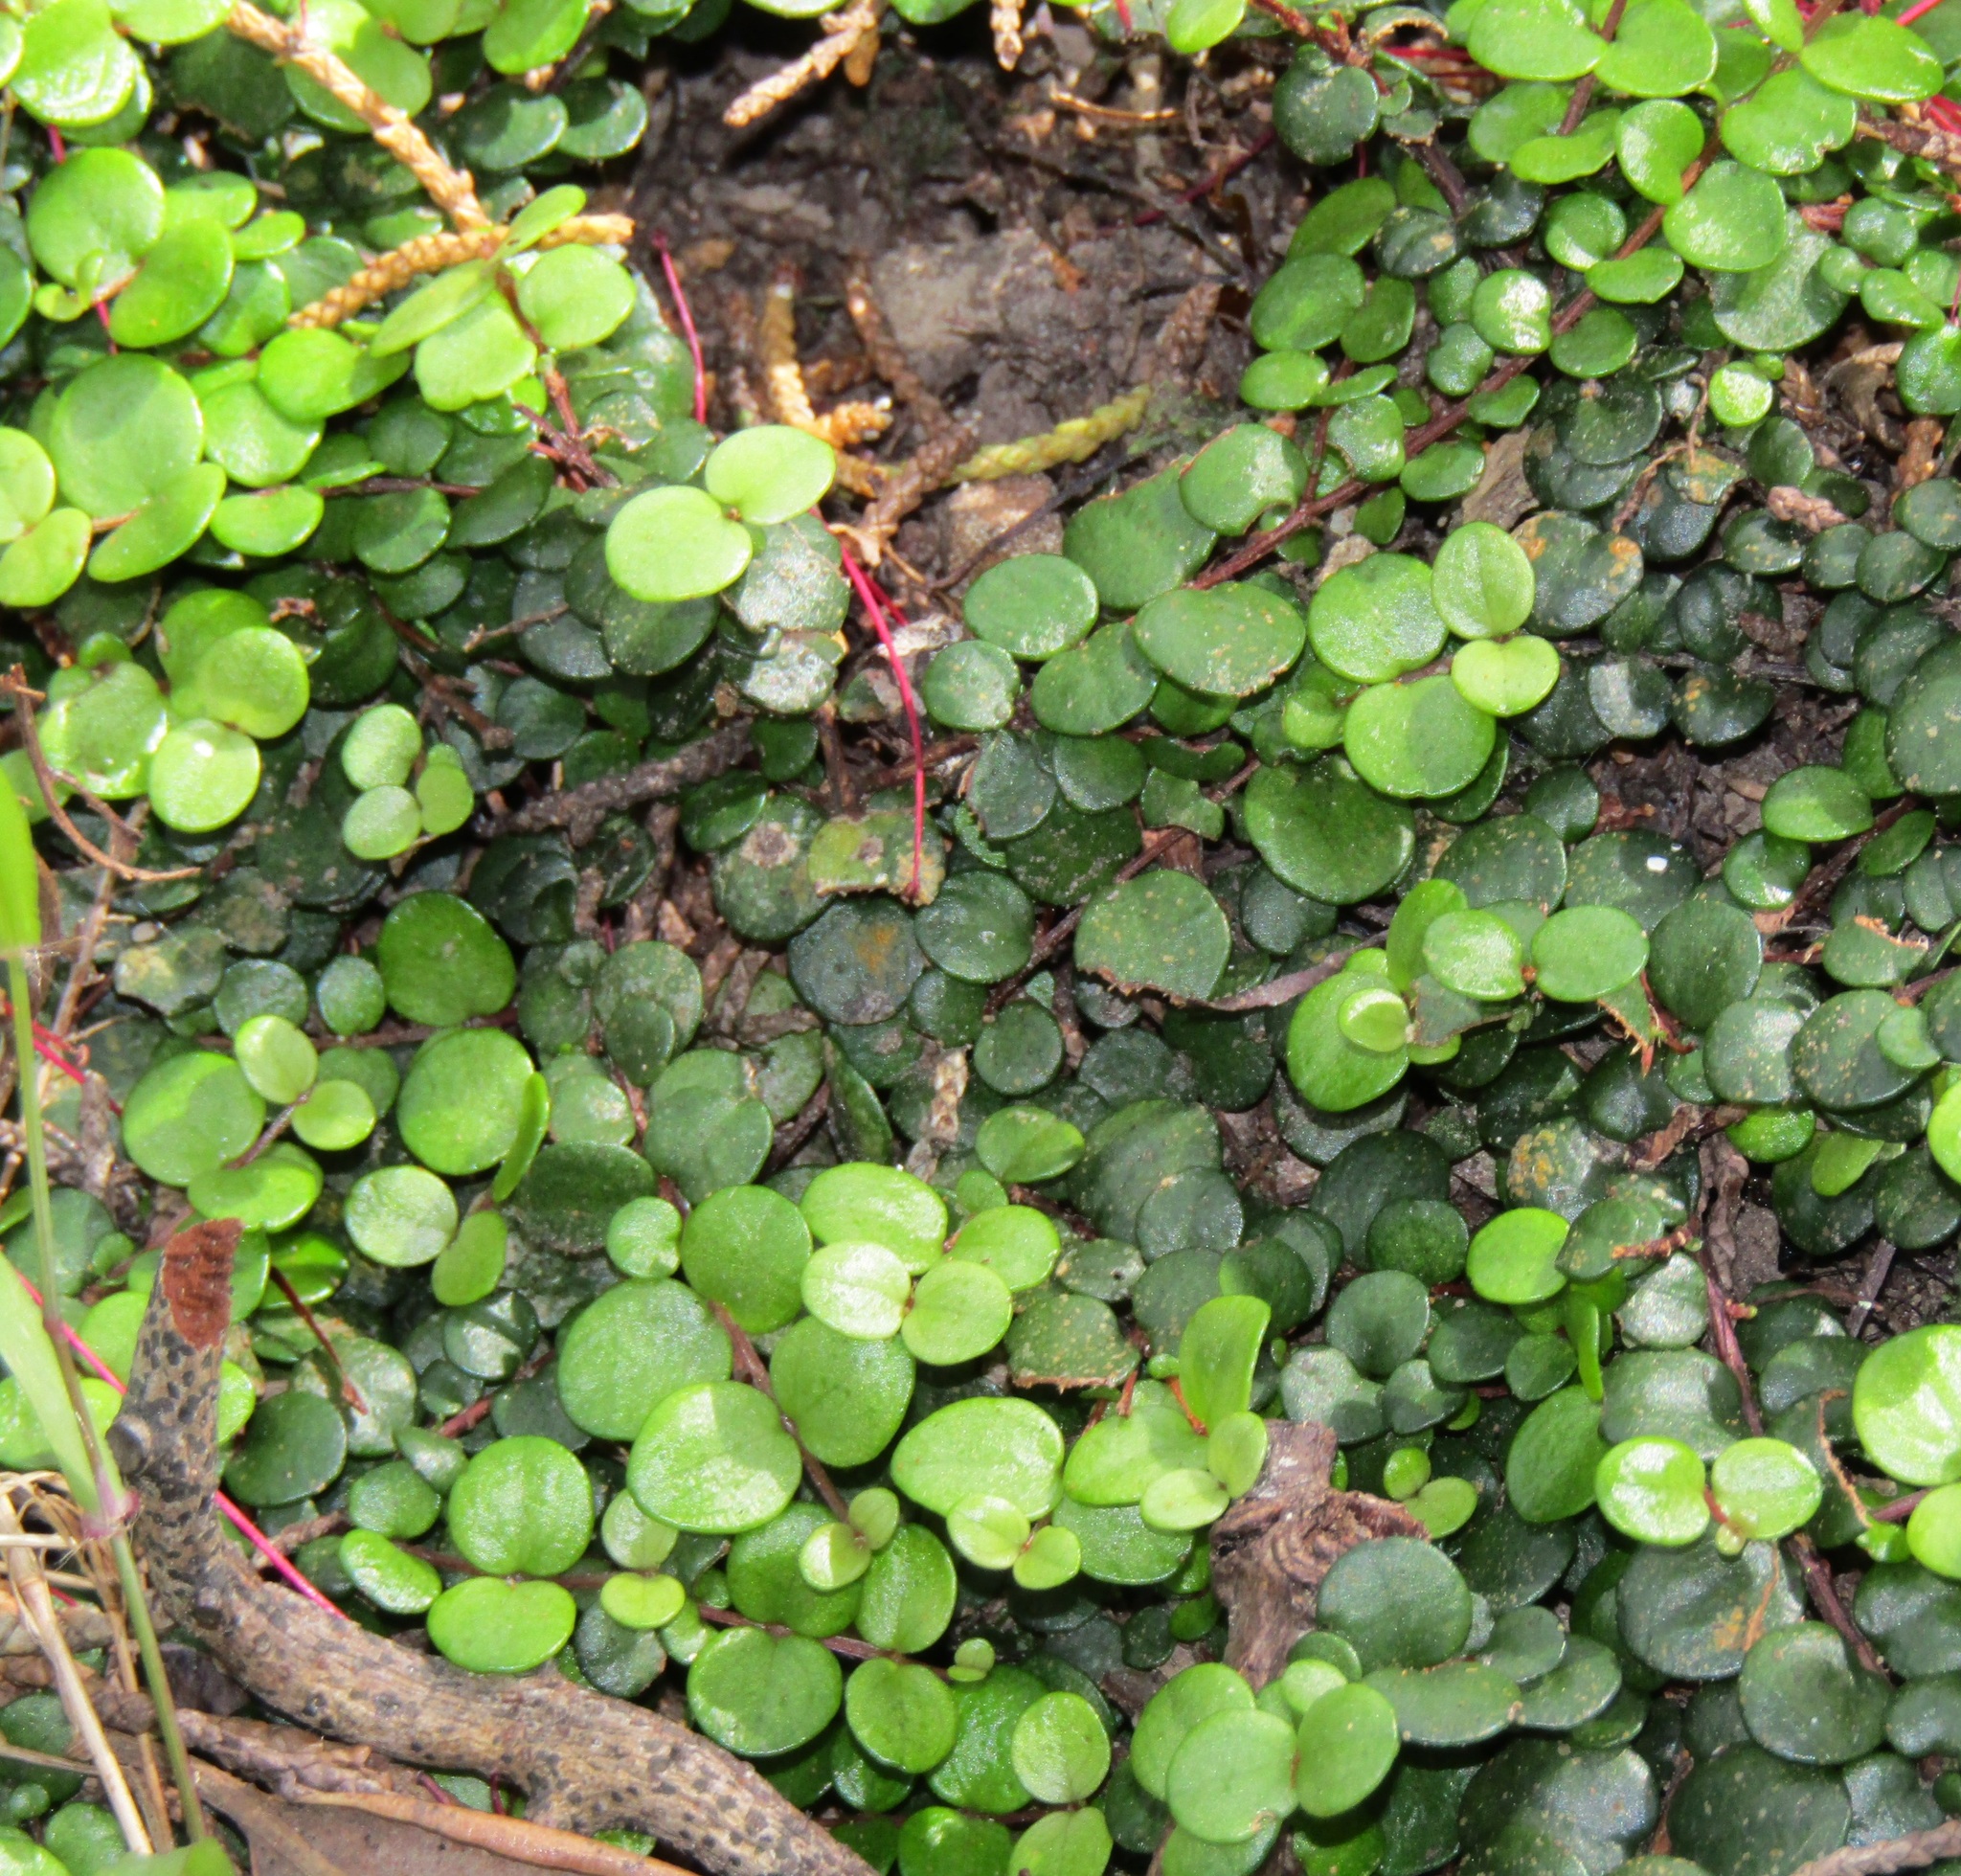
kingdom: Plantae
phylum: Tracheophyta
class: Magnoliopsida
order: Myrtales
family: Myrtaceae
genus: Metrosideros
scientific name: Metrosideros perforata
